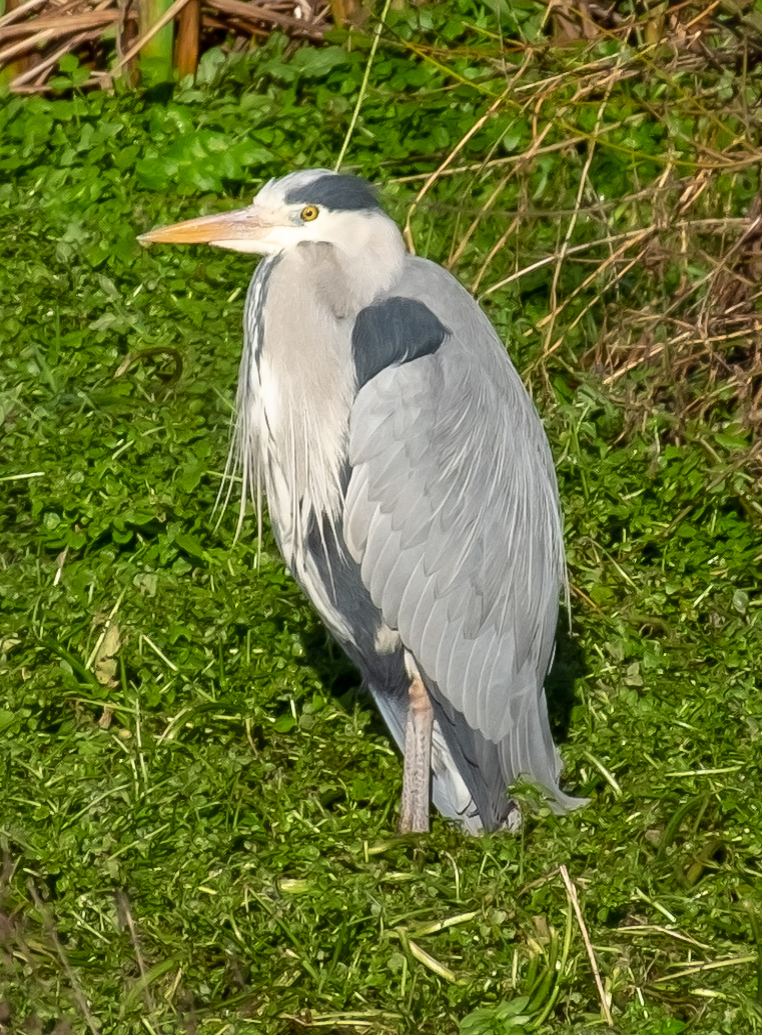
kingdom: Animalia
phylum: Chordata
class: Aves
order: Pelecaniformes
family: Ardeidae
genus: Ardea
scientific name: Ardea cinerea
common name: Grey heron
